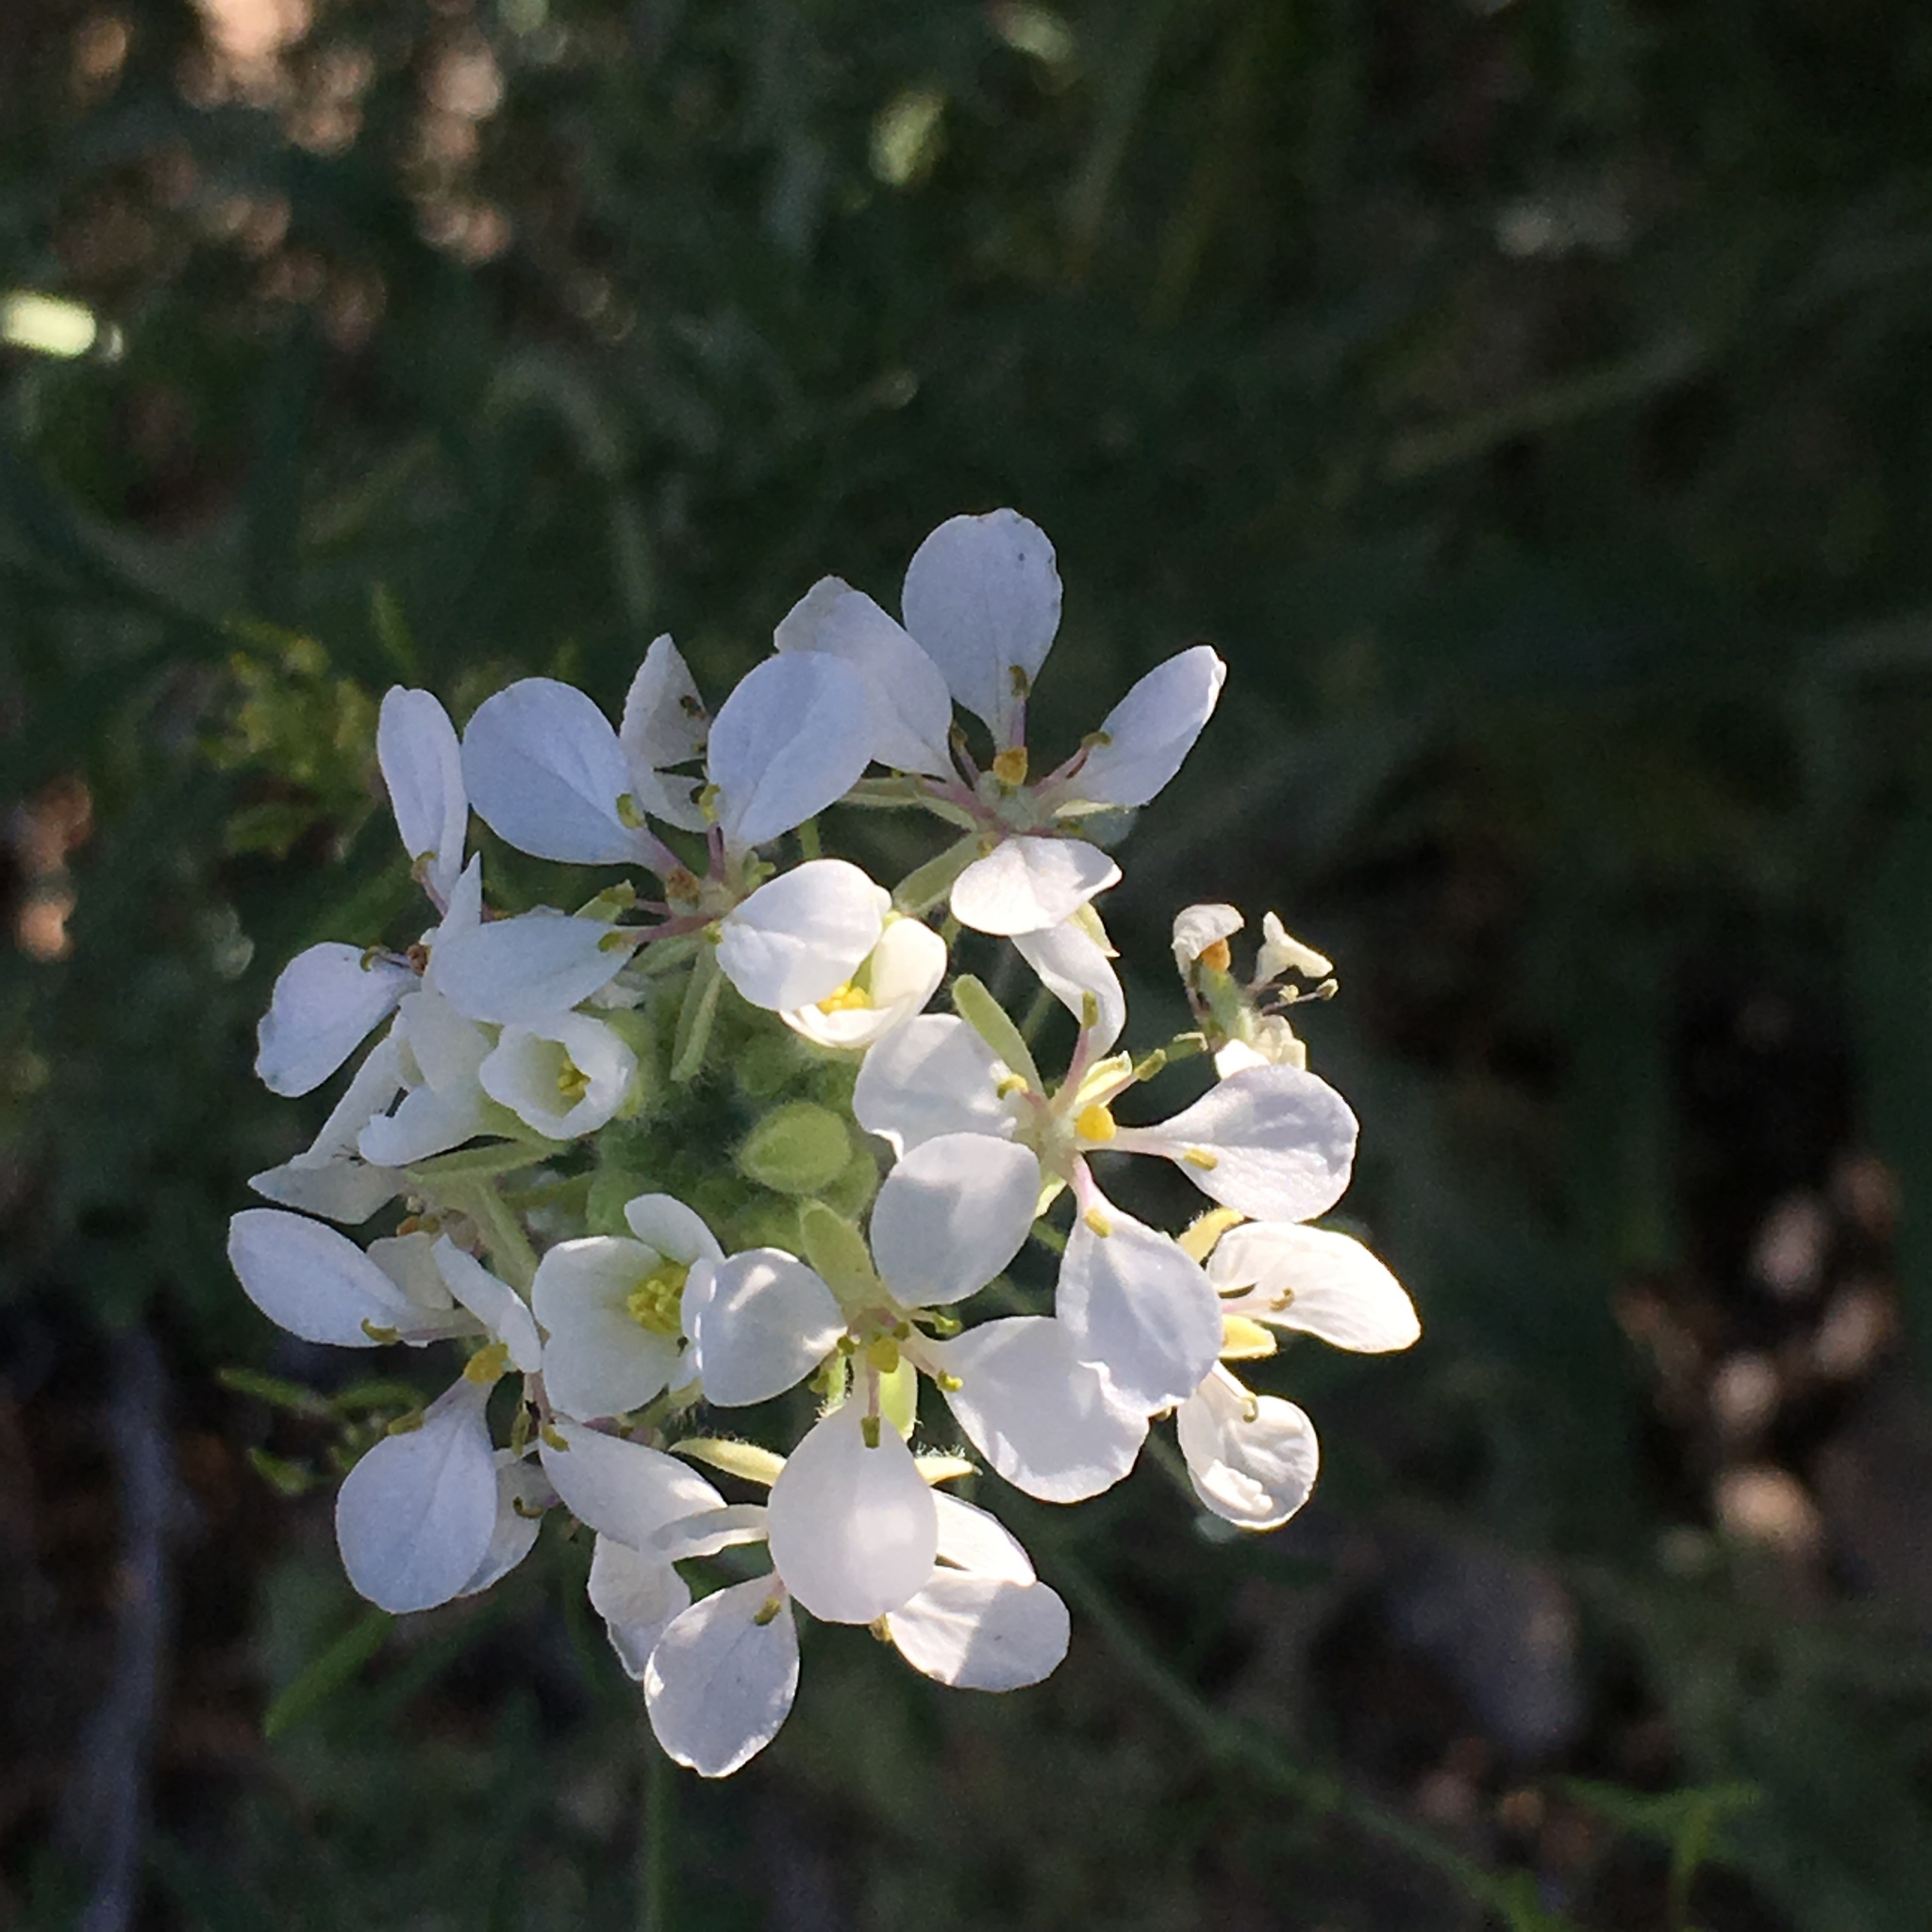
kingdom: Plantae
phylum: Tracheophyta
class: Magnoliopsida
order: Brassicales
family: Brassicaceae
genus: Dimorphocarpa
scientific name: Dimorphocarpa wislizenii
